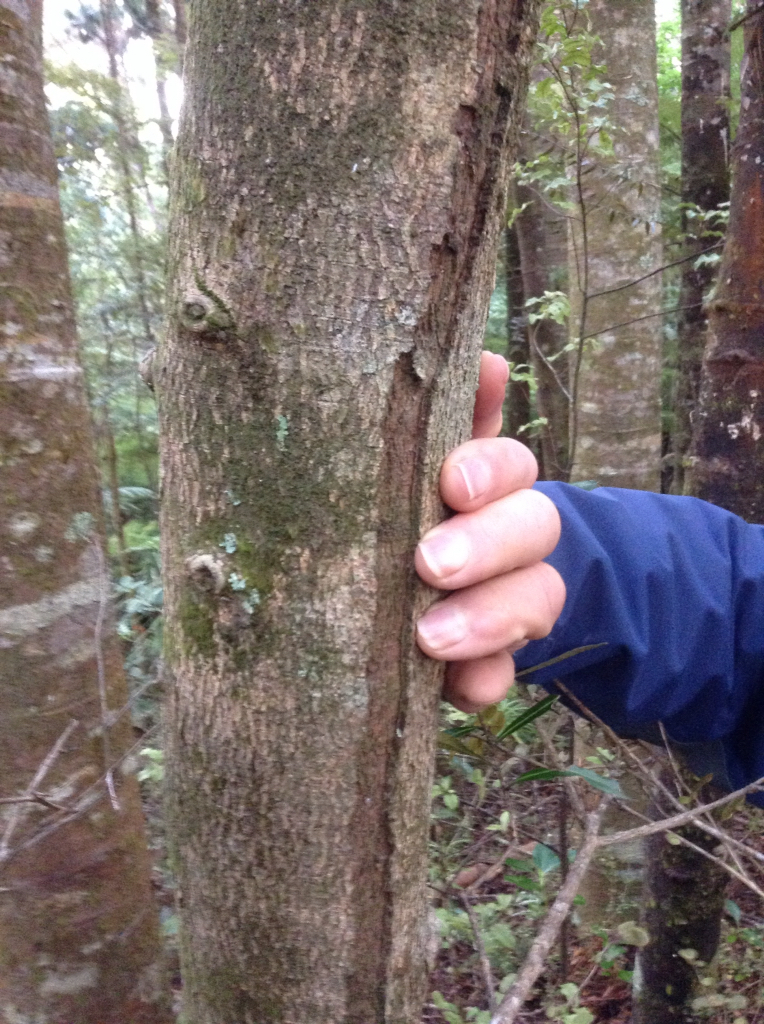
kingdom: Plantae
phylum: Tracheophyta
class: Pinopsida
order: Pinales
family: Podocarpaceae
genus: Halocarpus
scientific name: Halocarpus kirkii
